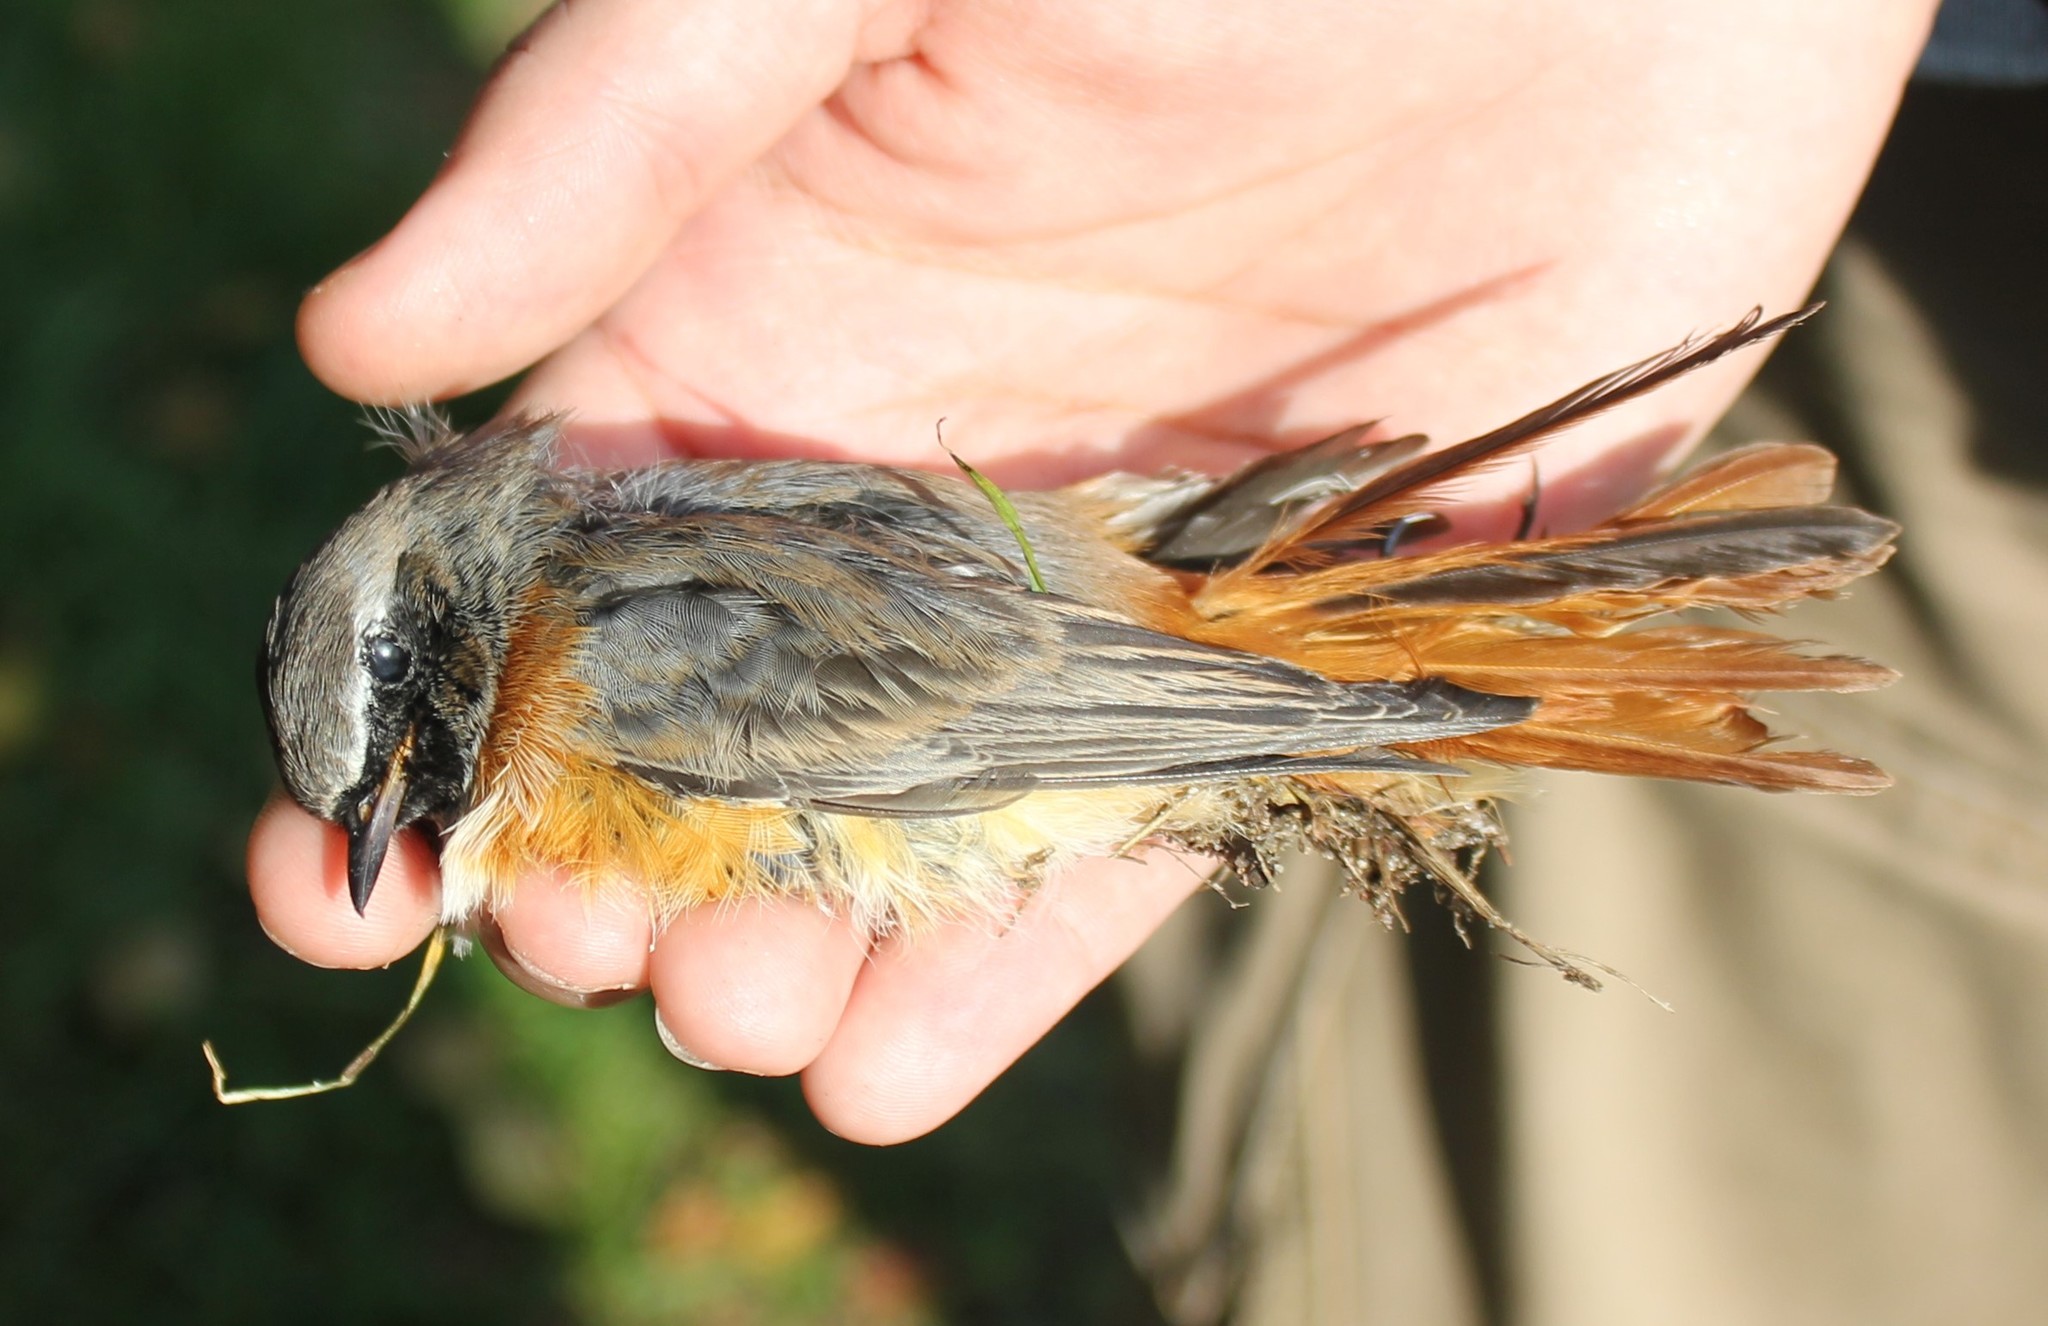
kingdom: Animalia
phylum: Chordata
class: Aves
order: Passeriformes
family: Muscicapidae
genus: Phoenicurus
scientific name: Phoenicurus phoenicurus
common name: Common redstart
